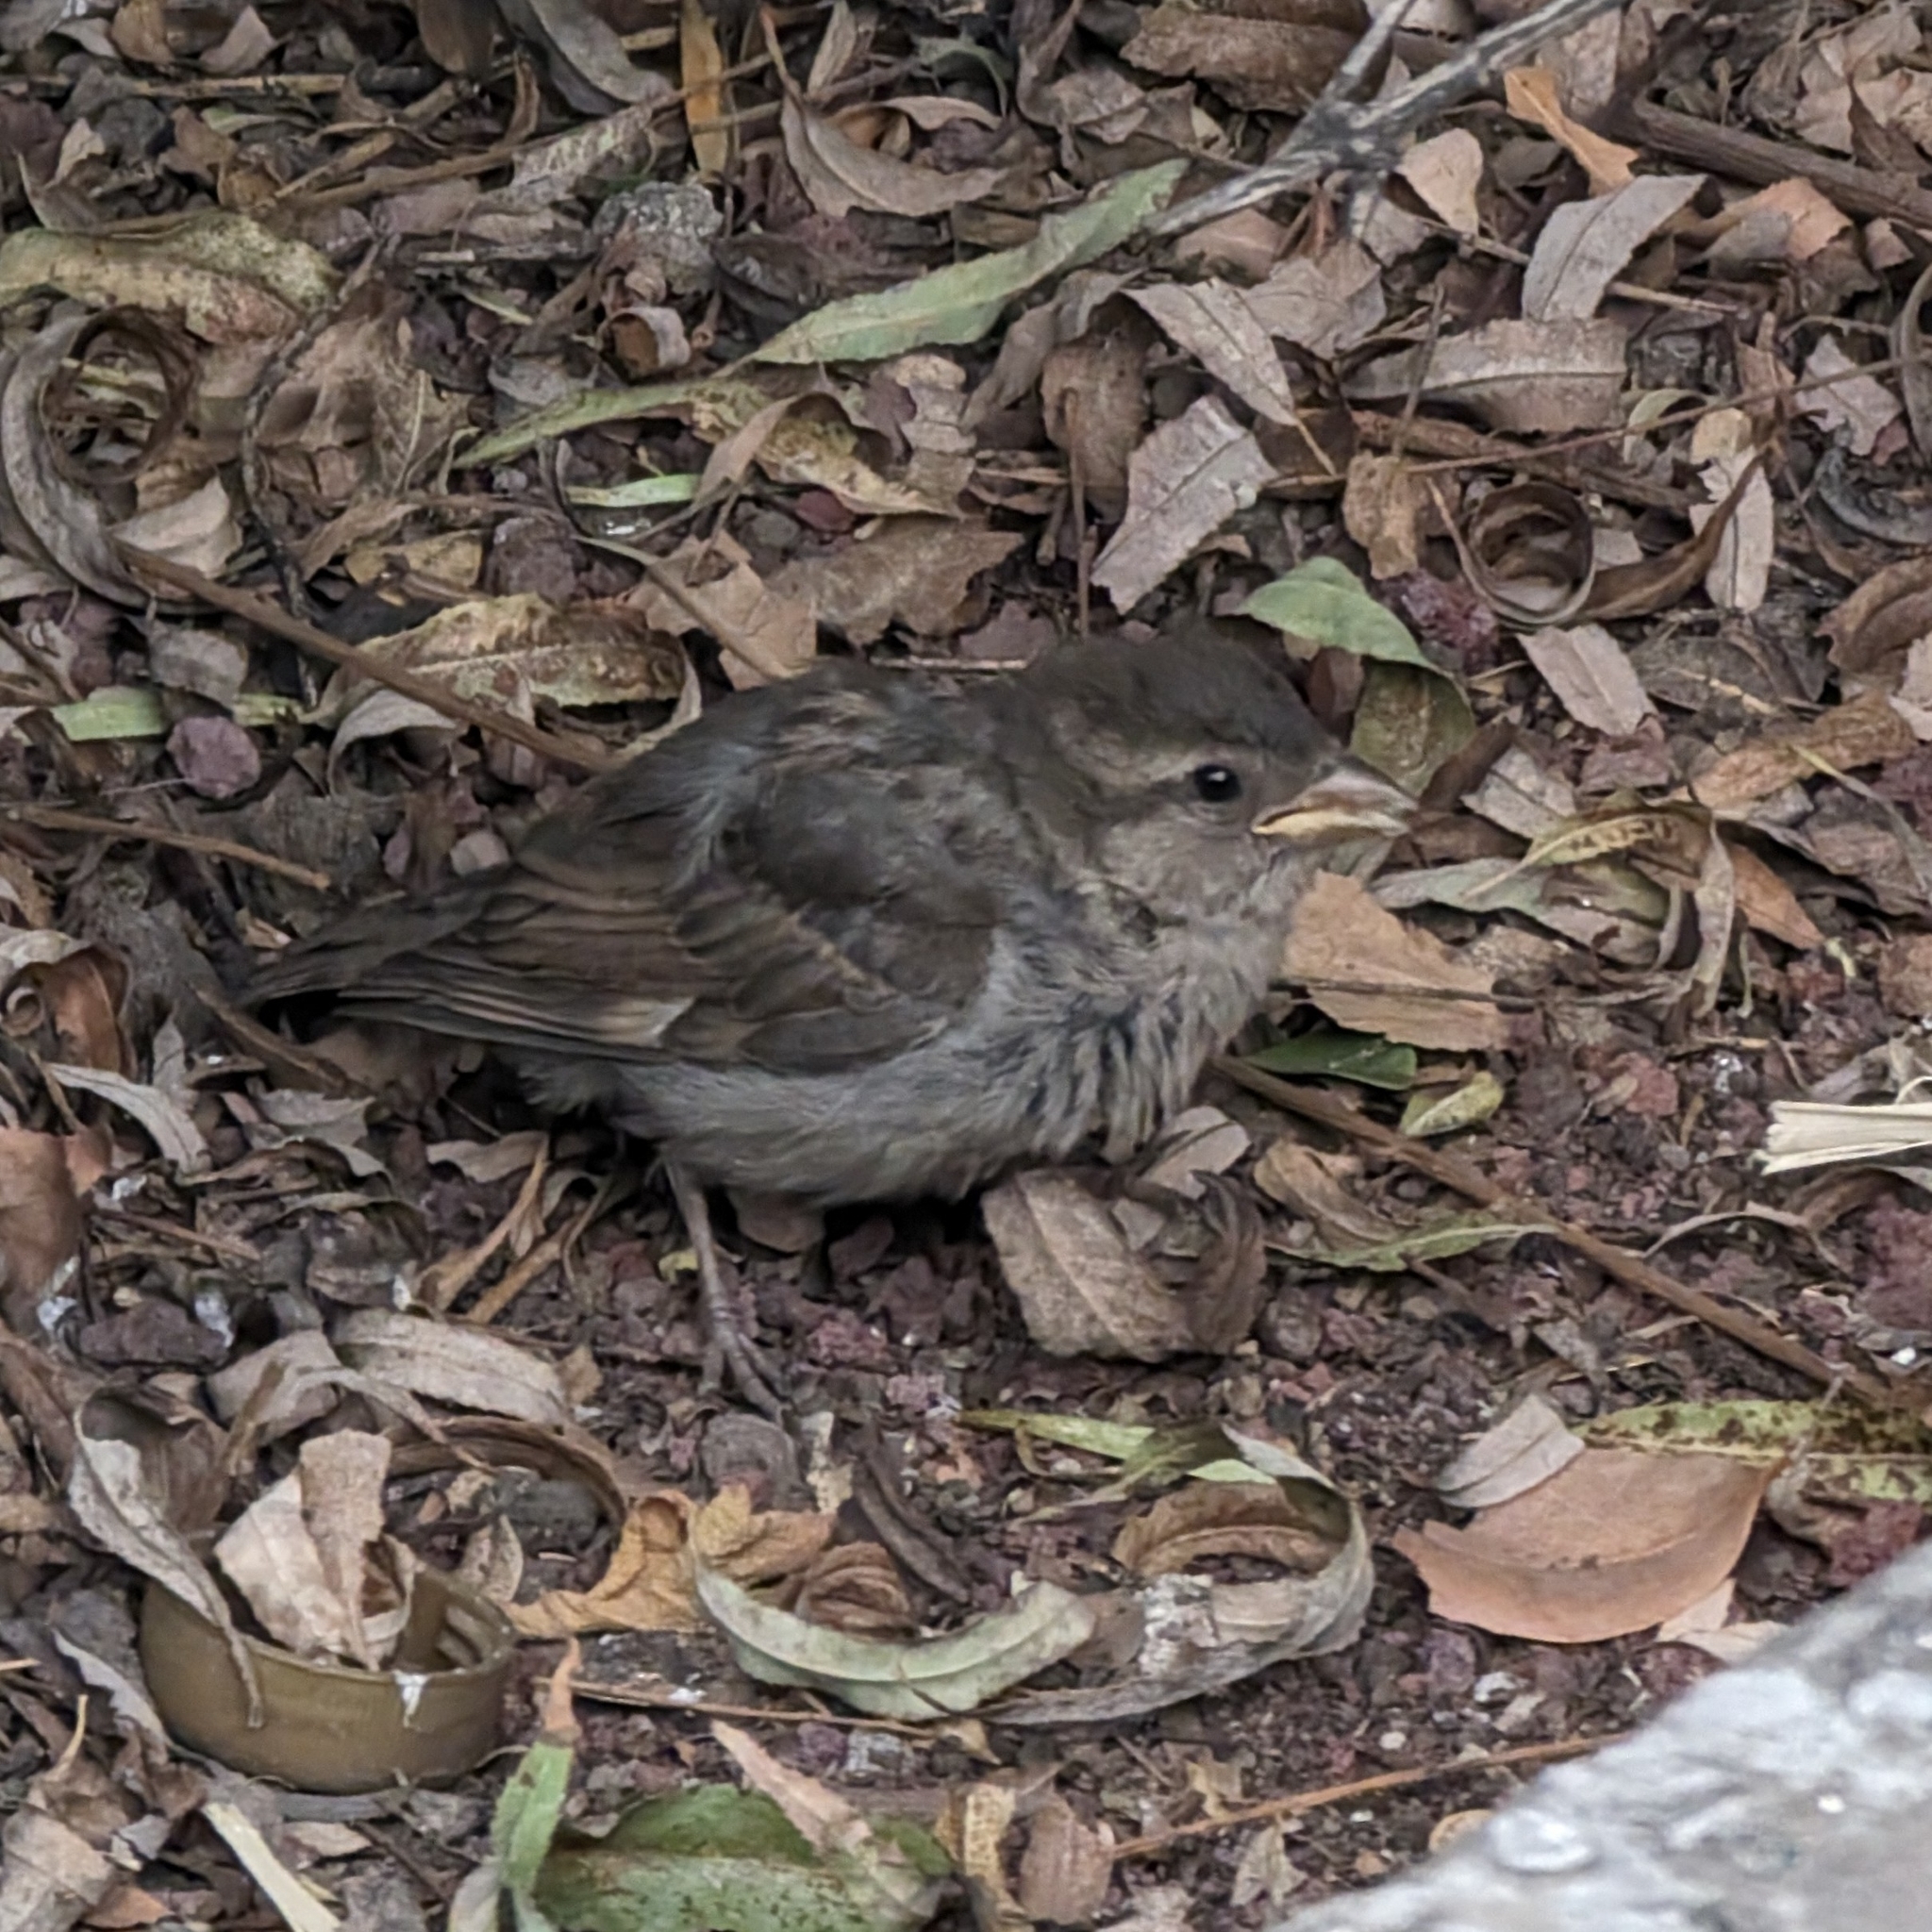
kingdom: Animalia
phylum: Chordata
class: Aves
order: Passeriformes
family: Passeridae
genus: Passer
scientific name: Passer domesticus
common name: House sparrow
